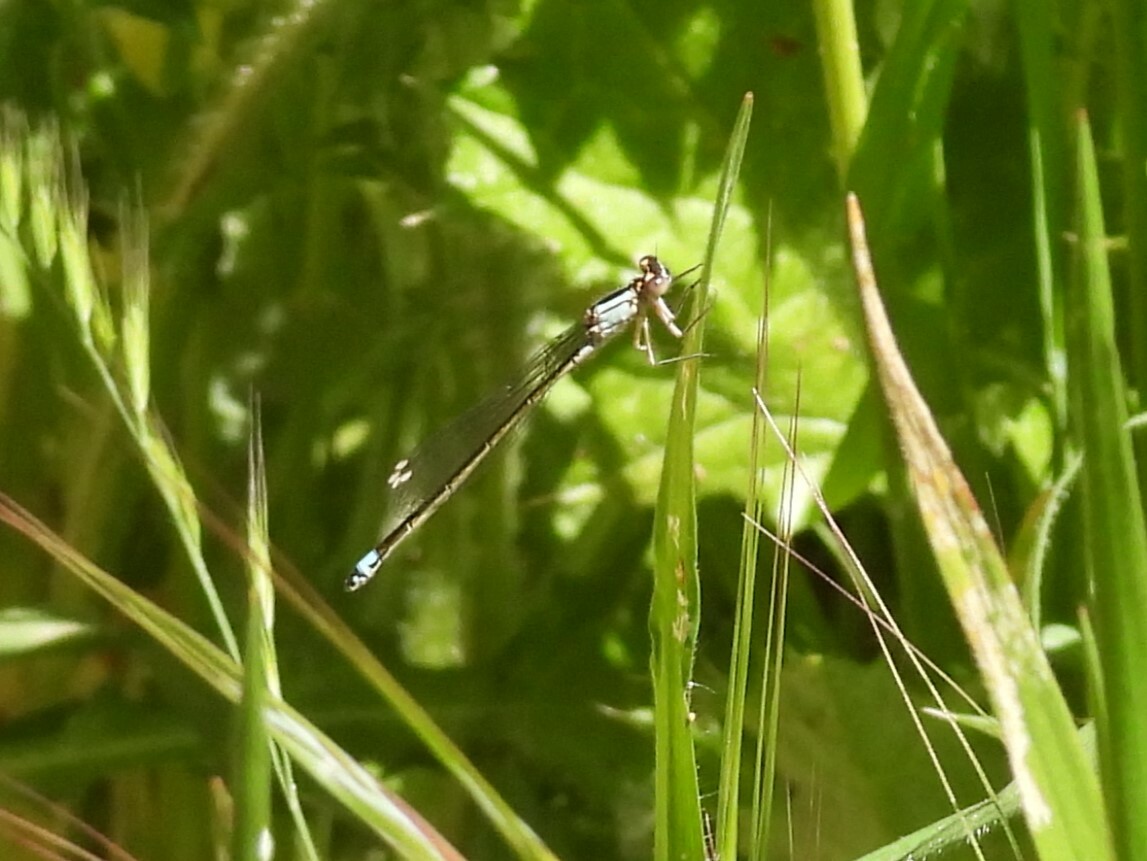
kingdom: Animalia
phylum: Arthropoda
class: Insecta
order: Odonata
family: Coenagrionidae
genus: Ischnura
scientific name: Ischnura cervula
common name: Pacific forktail
